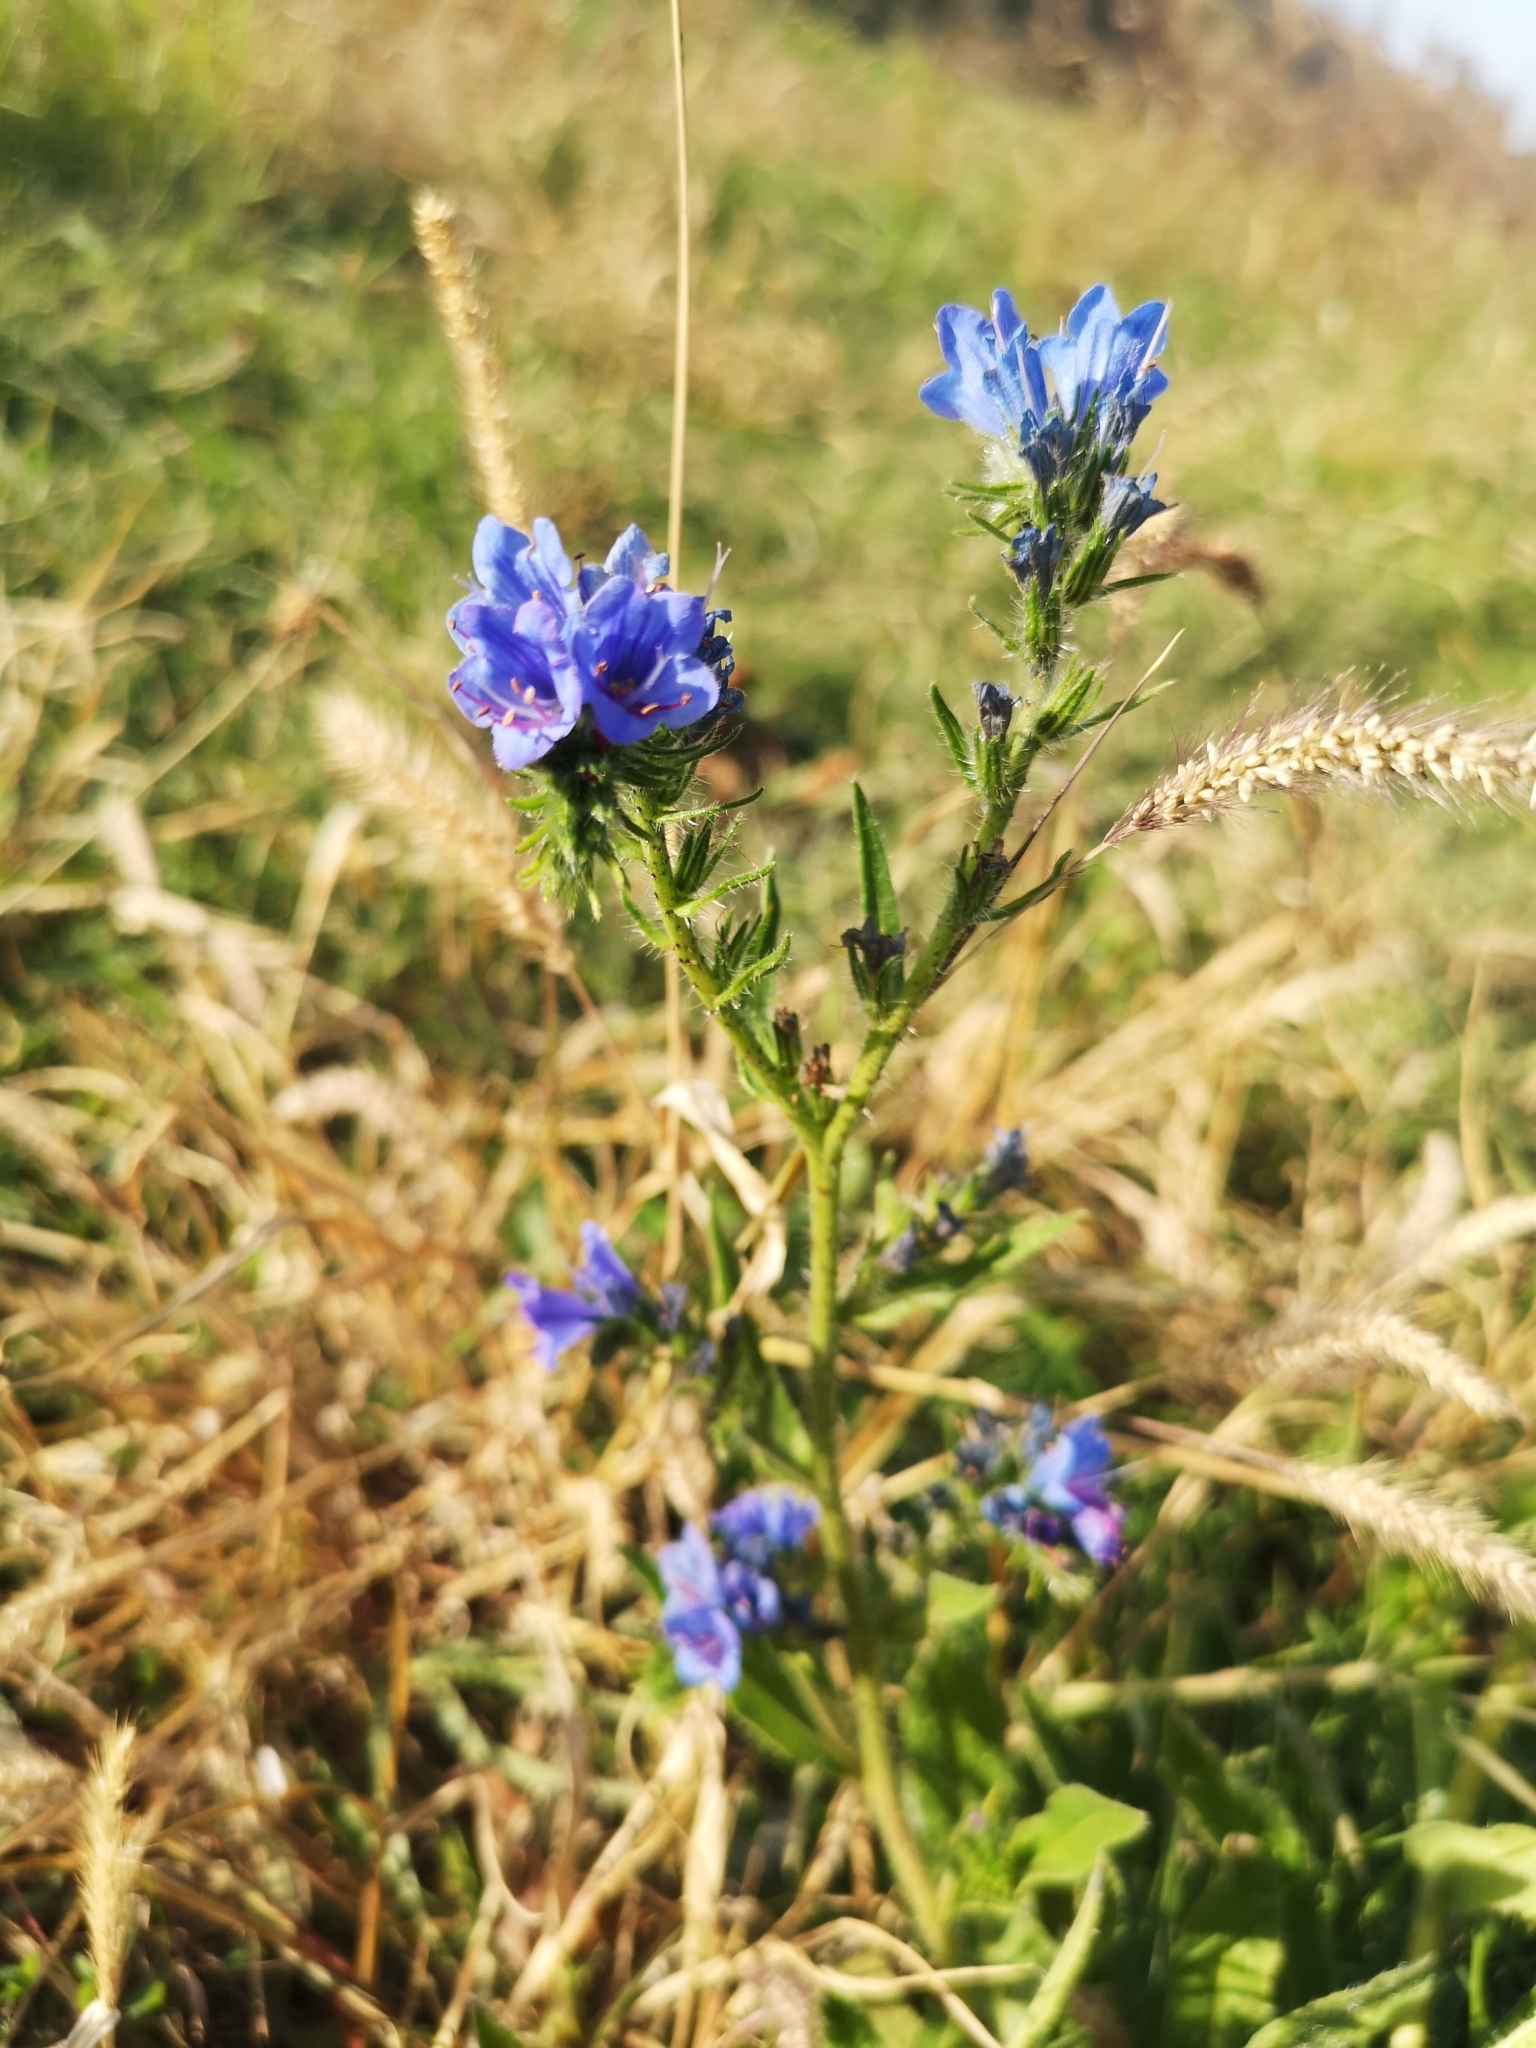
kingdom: Plantae
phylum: Tracheophyta
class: Magnoliopsida
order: Boraginales
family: Boraginaceae
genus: Echium
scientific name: Echium vulgare
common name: Common viper's bugloss
